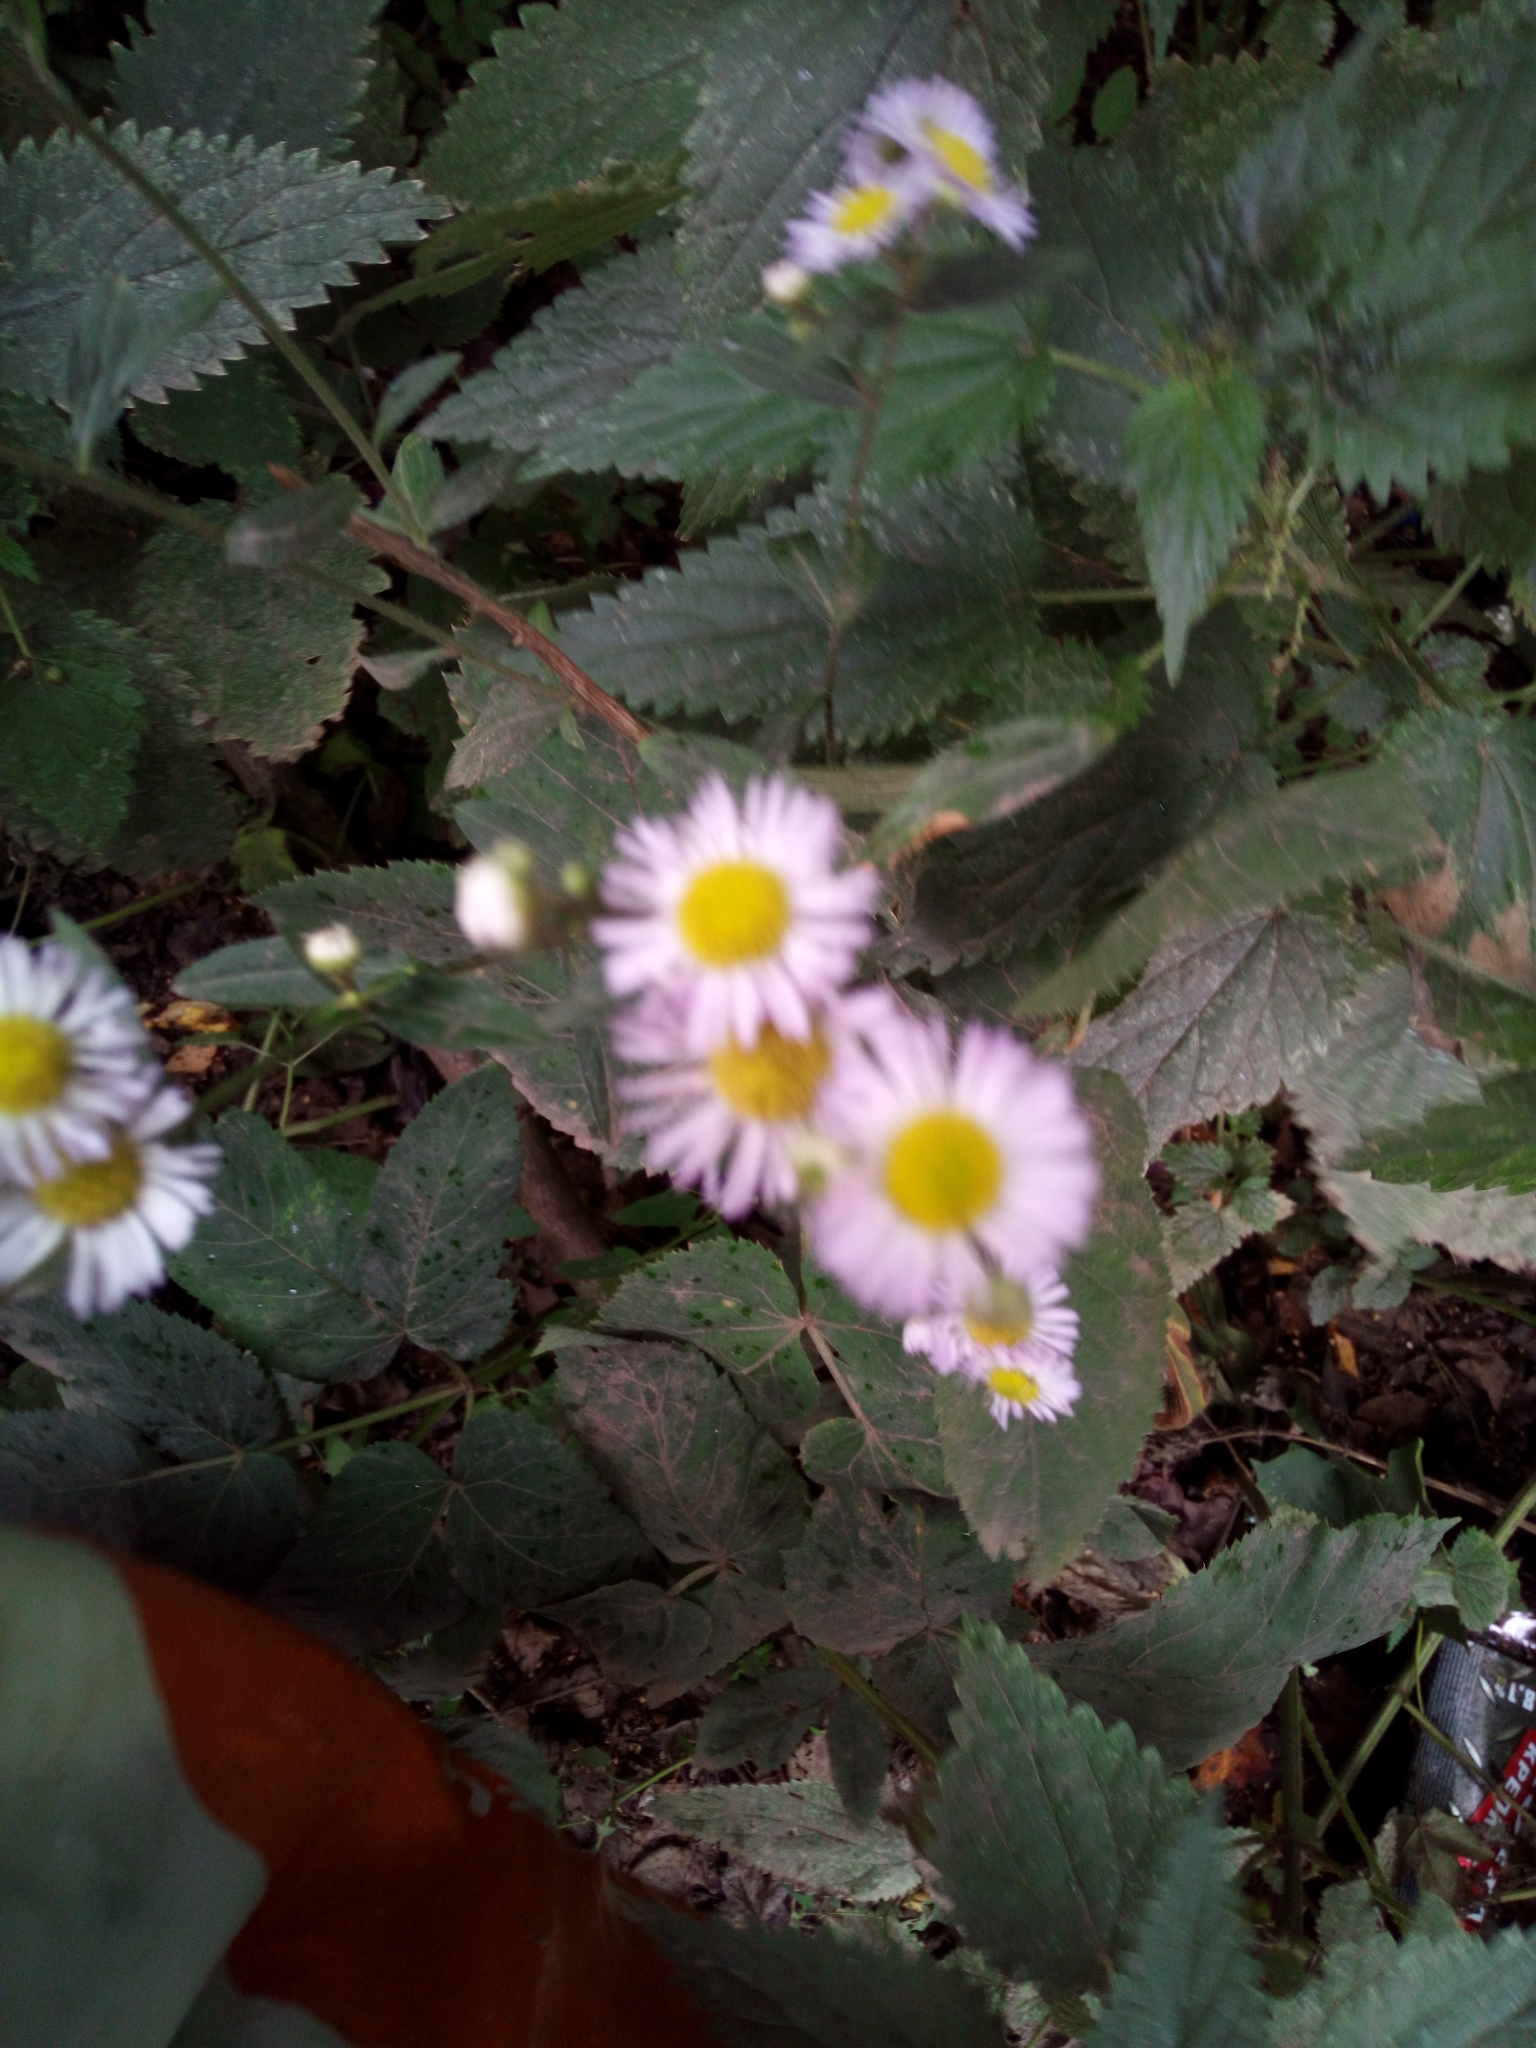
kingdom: Plantae
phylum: Tracheophyta
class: Magnoliopsida
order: Asterales
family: Asteraceae
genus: Erigeron
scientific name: Erigeron annuus
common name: Tall fleabane
